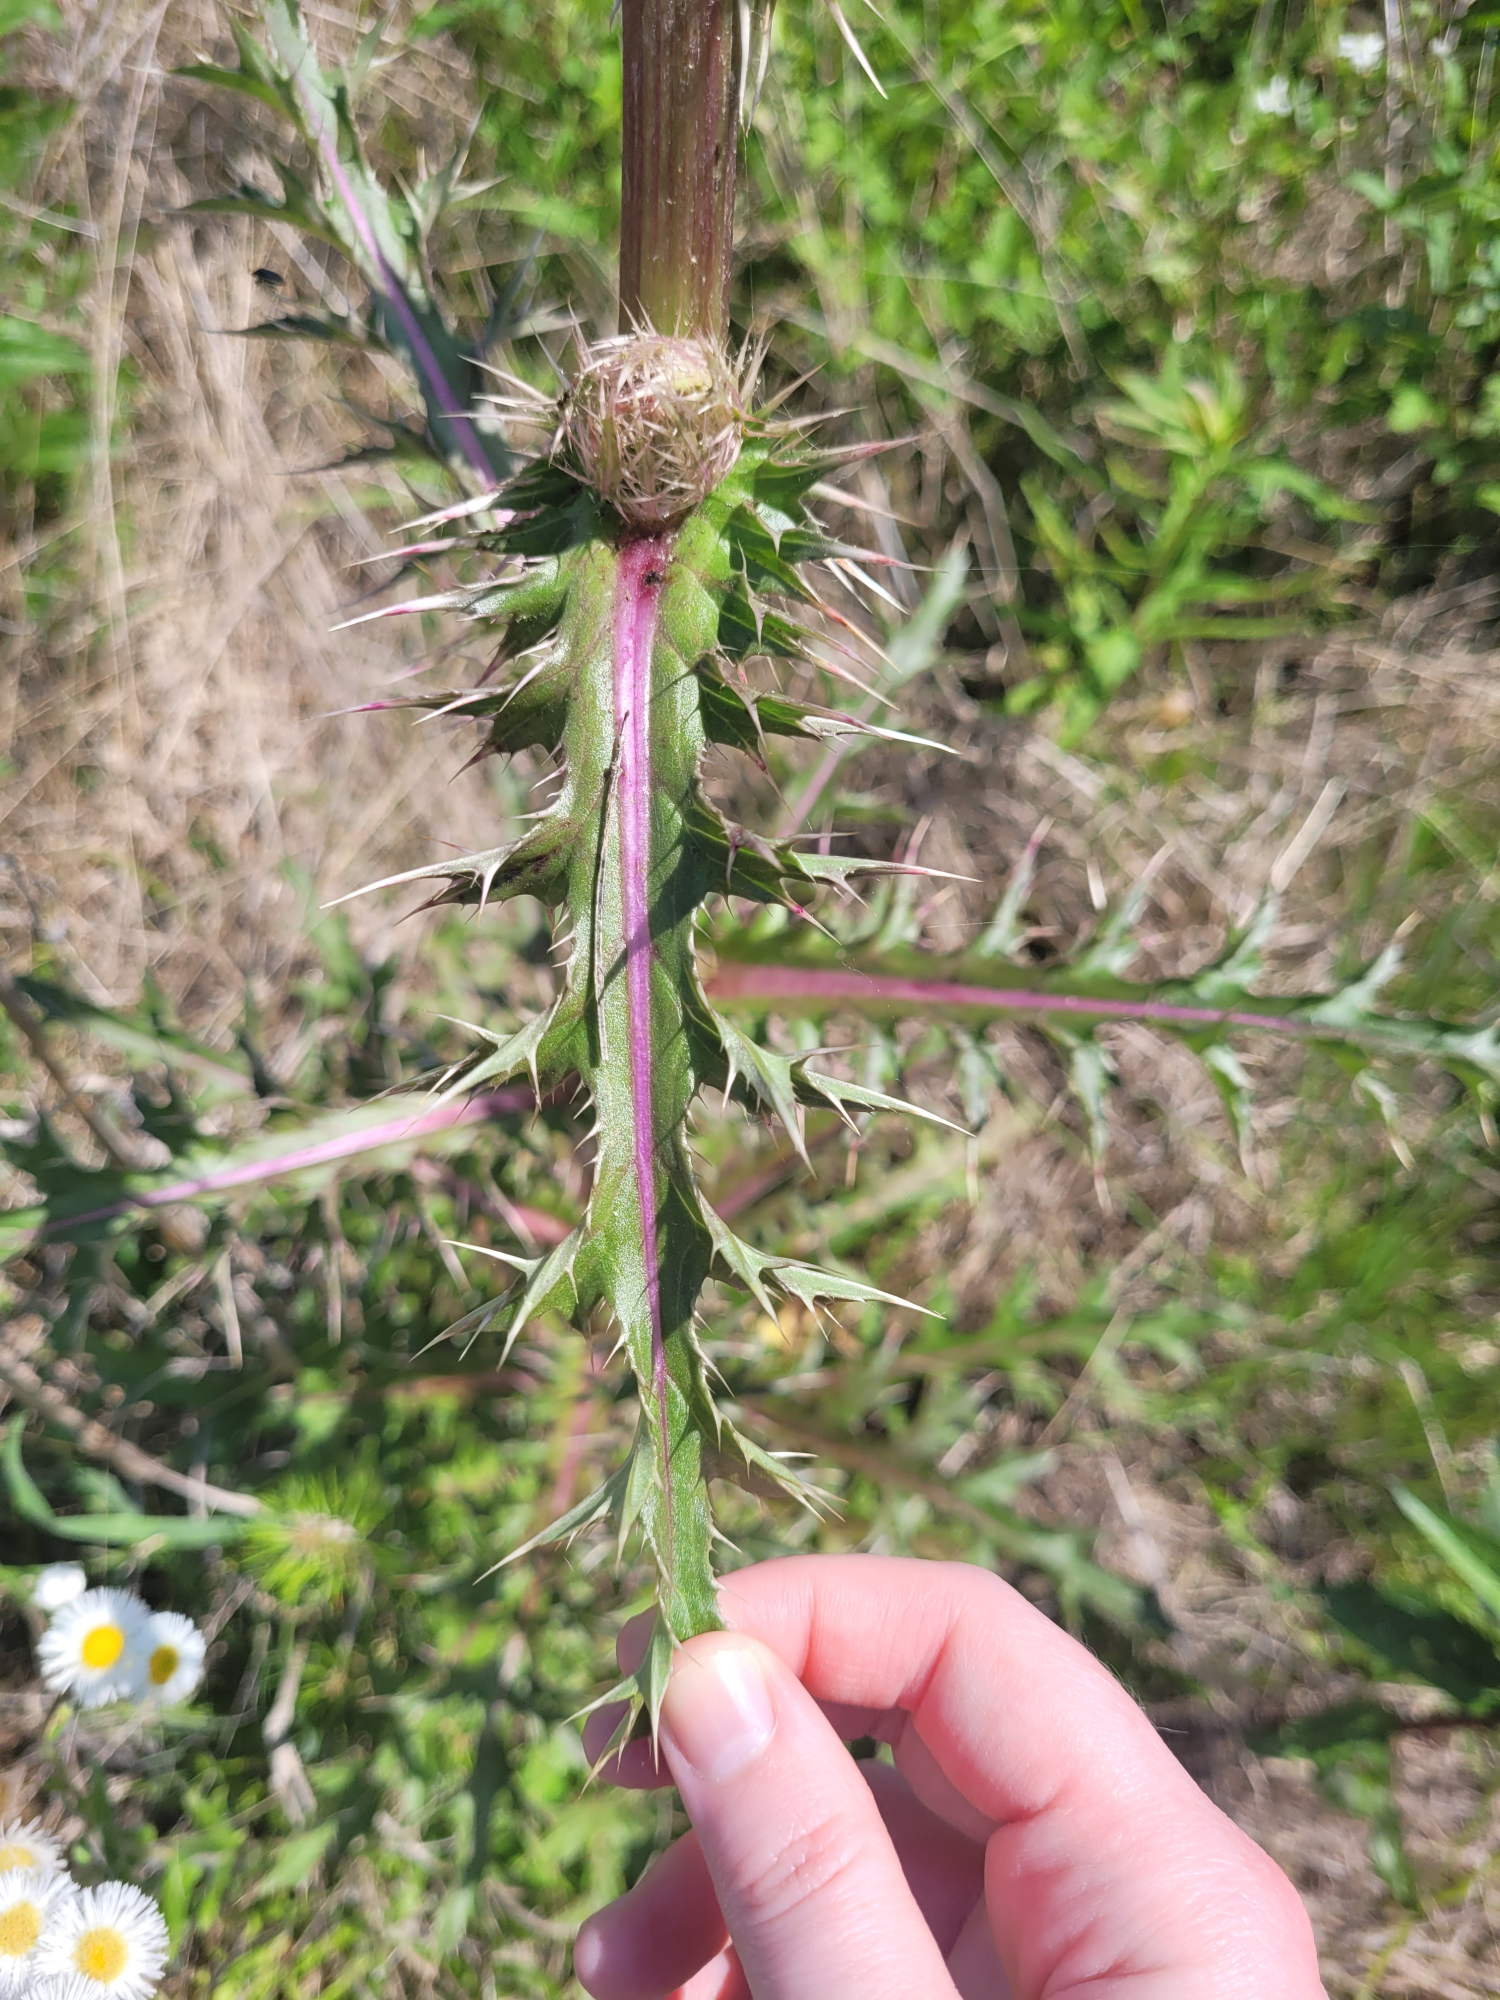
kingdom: Plantae
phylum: Tracheophyta
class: Magnoliopsida
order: Asterales
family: Asteraceae
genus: Cirsium
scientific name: Cirsium horridulum
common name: Bristly thistle
